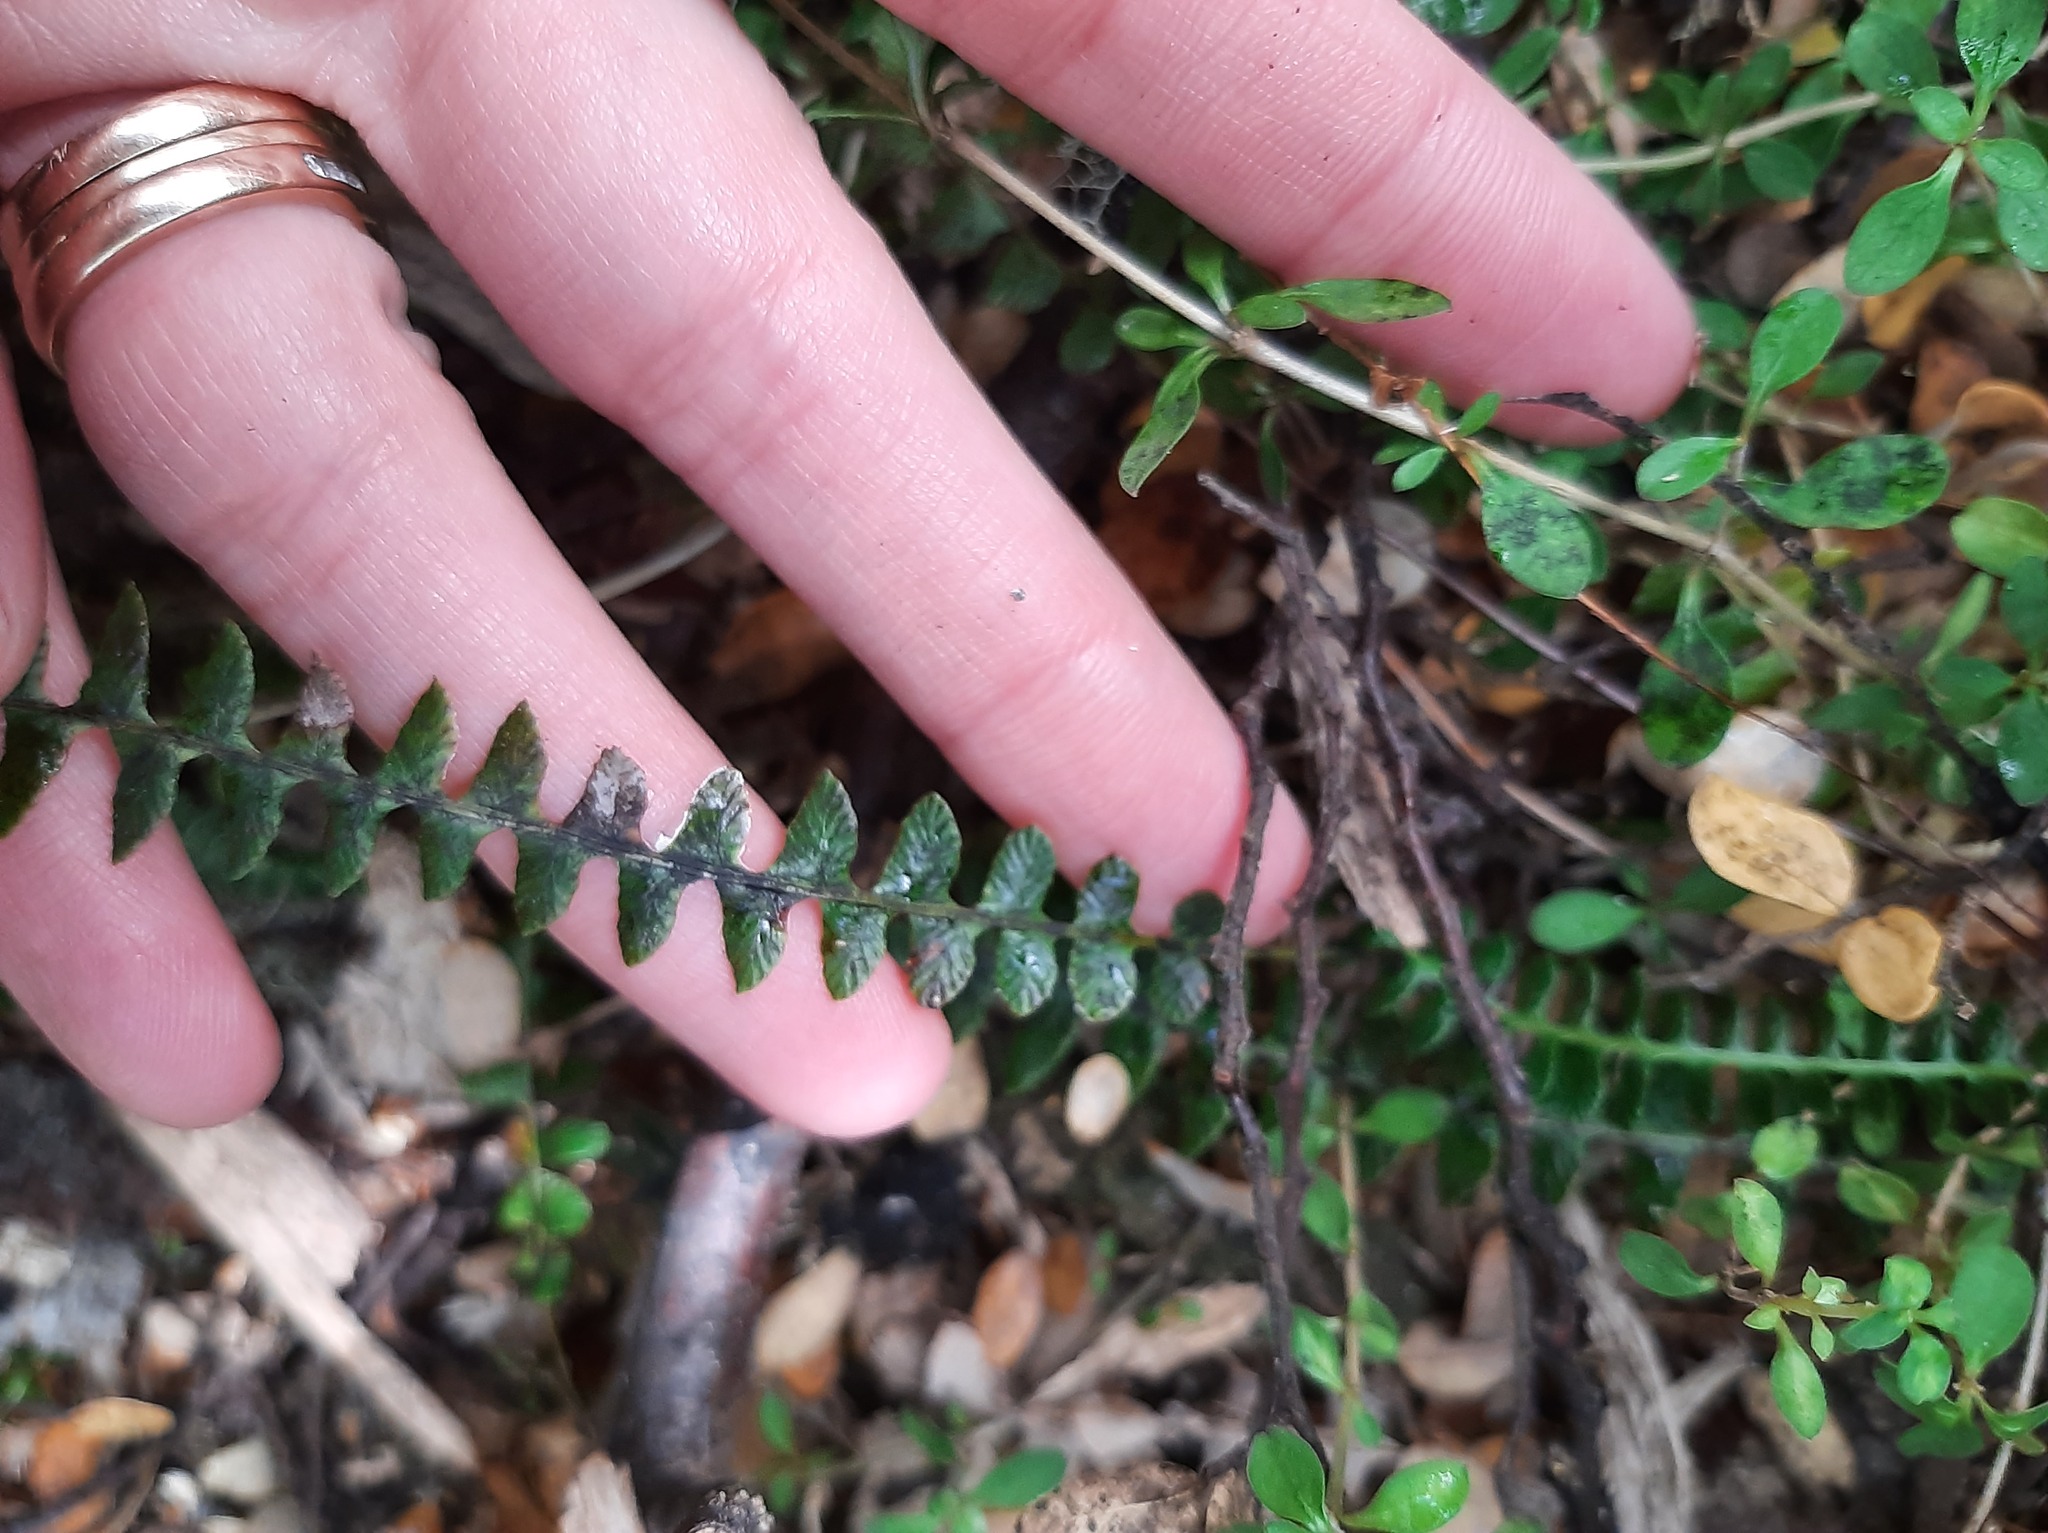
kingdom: Plantae
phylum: Tracheophyta
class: Polypodiopsida
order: Polypodiales
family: Blechnaceae
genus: Austroblechnum
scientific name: Austroblechnum penna-marina
